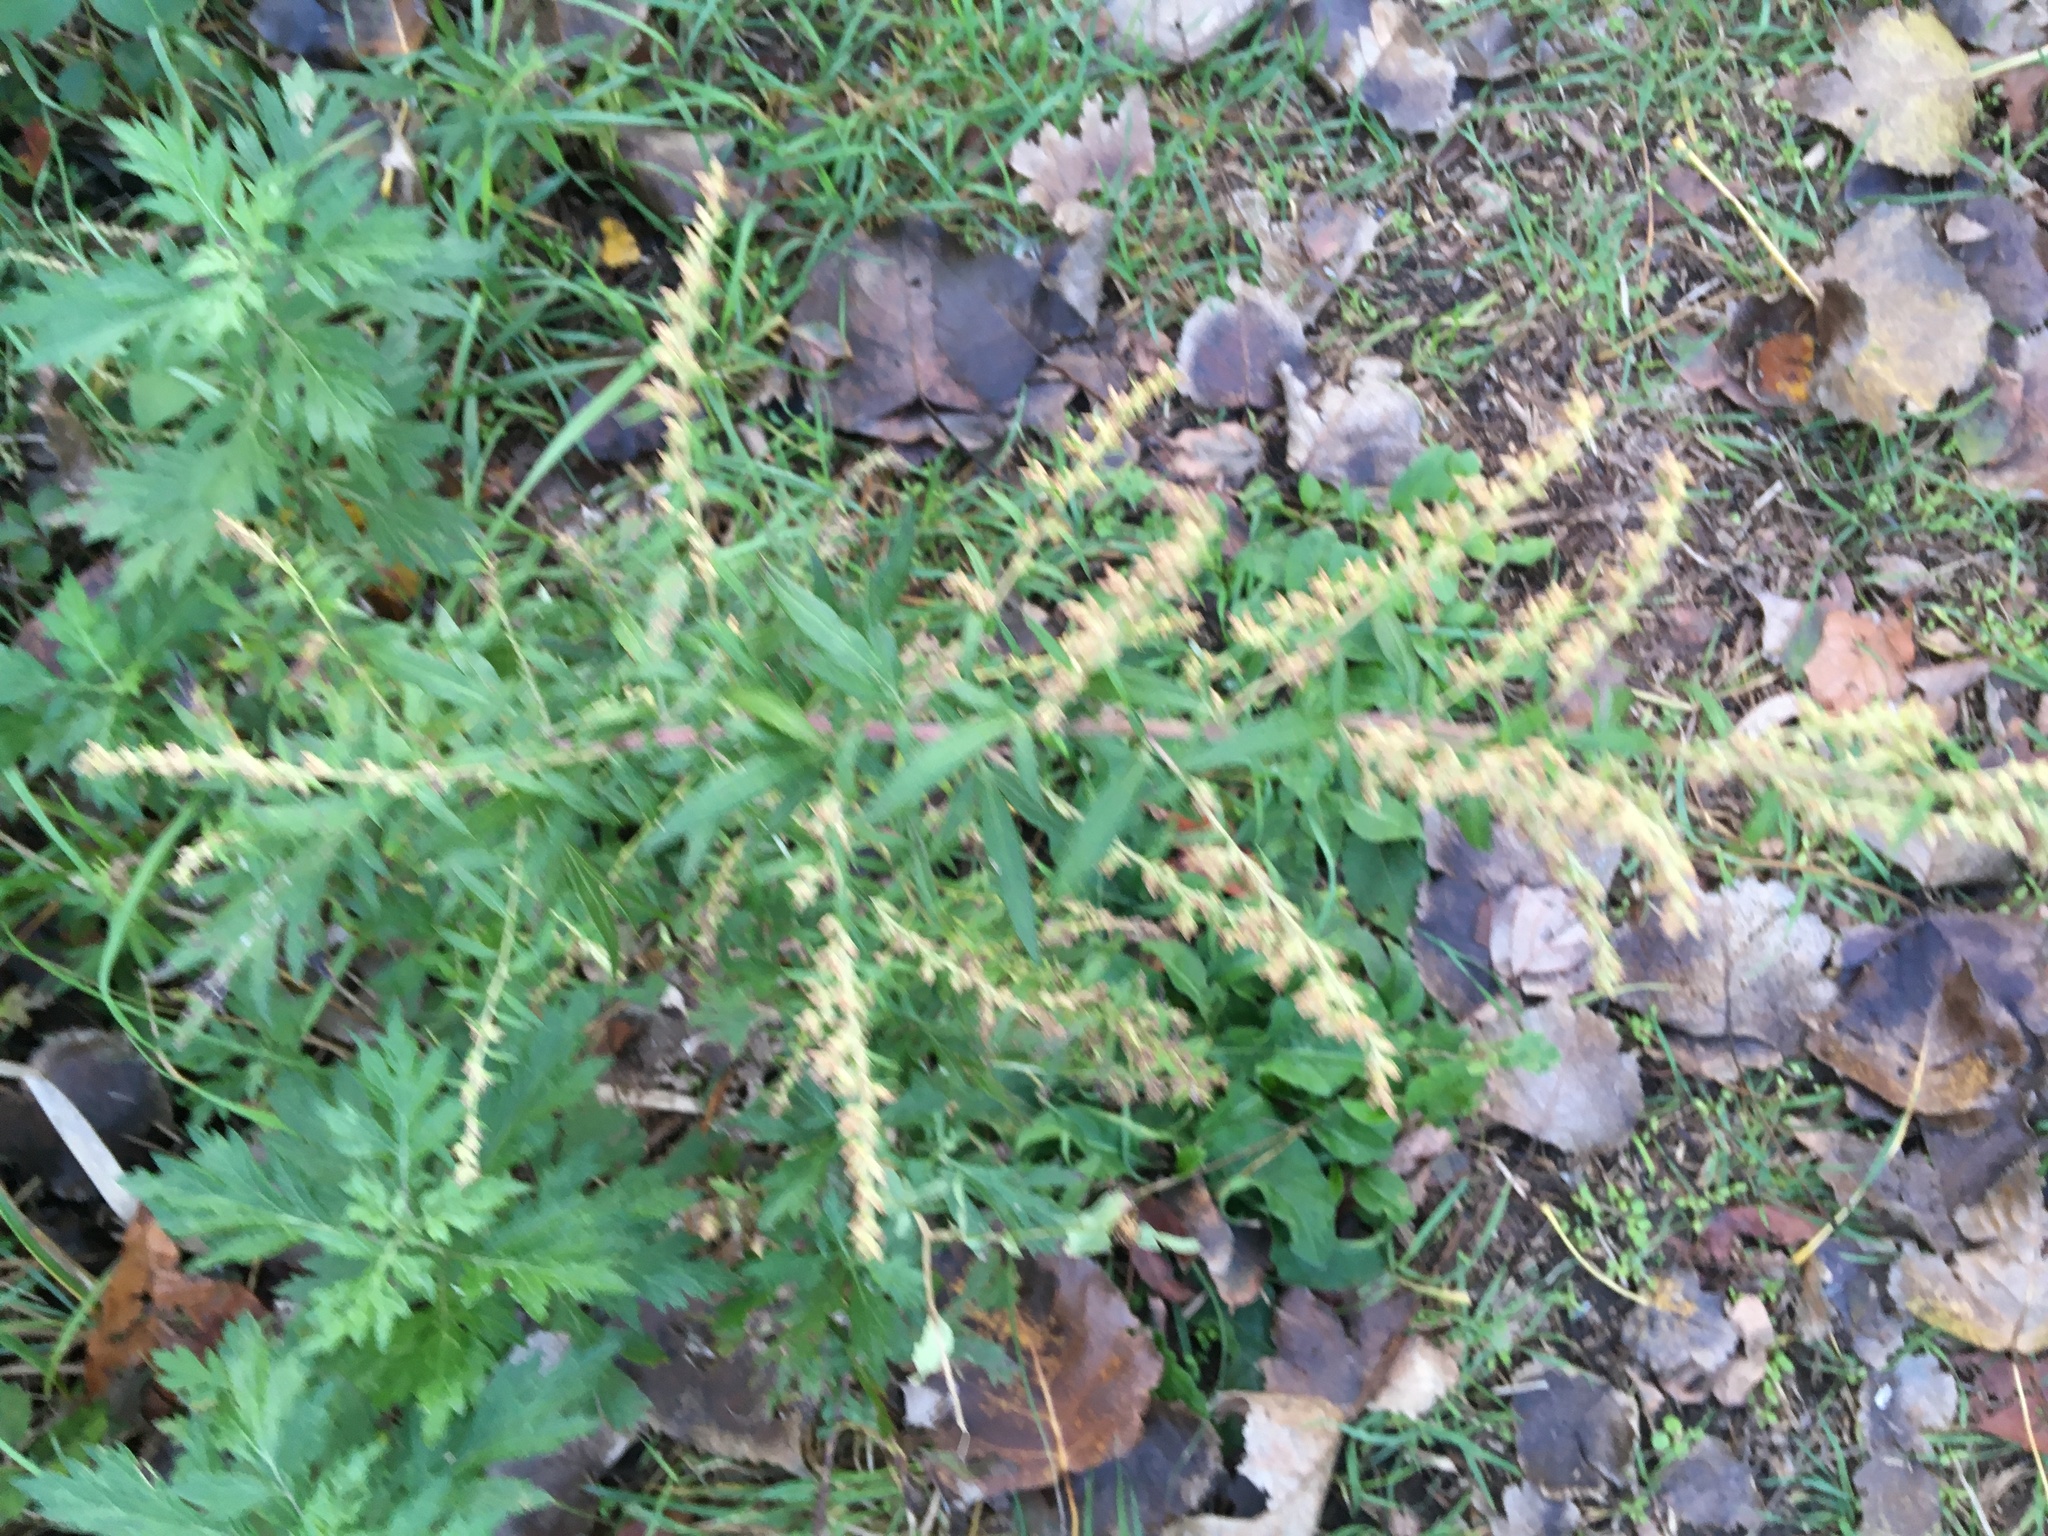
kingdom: Plantae
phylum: Tracheophyta
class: Magnoliopsida
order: Asterales
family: Asteraceae
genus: Artemisia
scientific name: Artemisia vulgaris
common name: Mugwort
